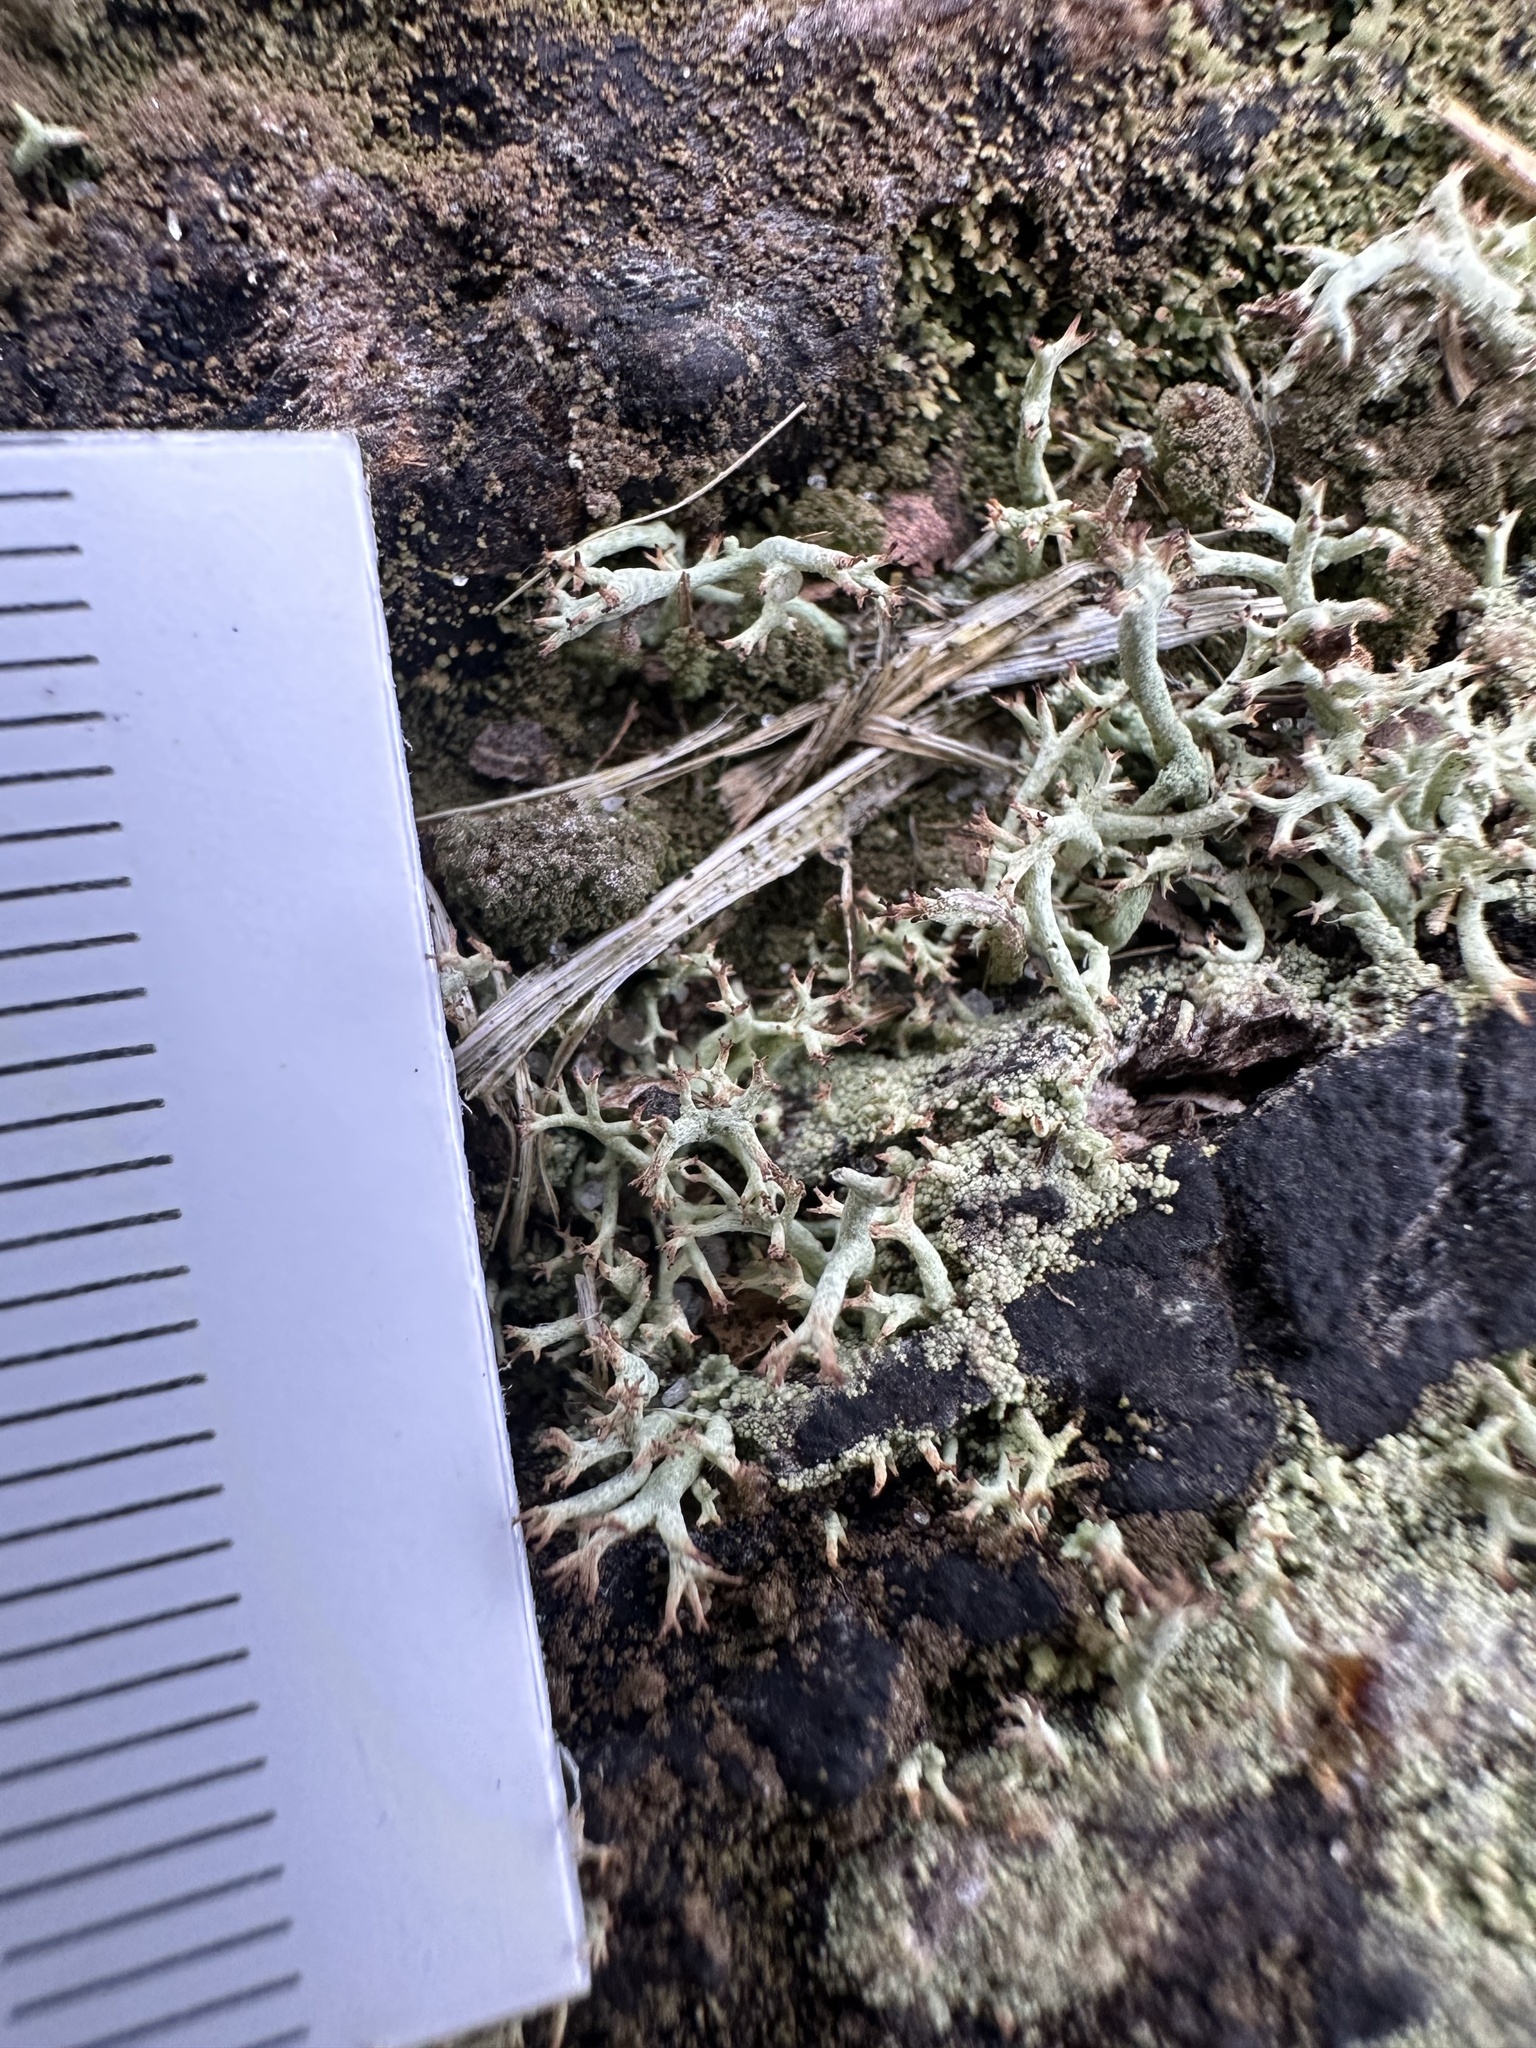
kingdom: Fungi
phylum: Ascomycota
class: Lecanoromycetes
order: Lecanorales
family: Cladoniaceae
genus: Cladonia
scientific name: Cladonia subtenuis
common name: Dixie reindeer lichen
